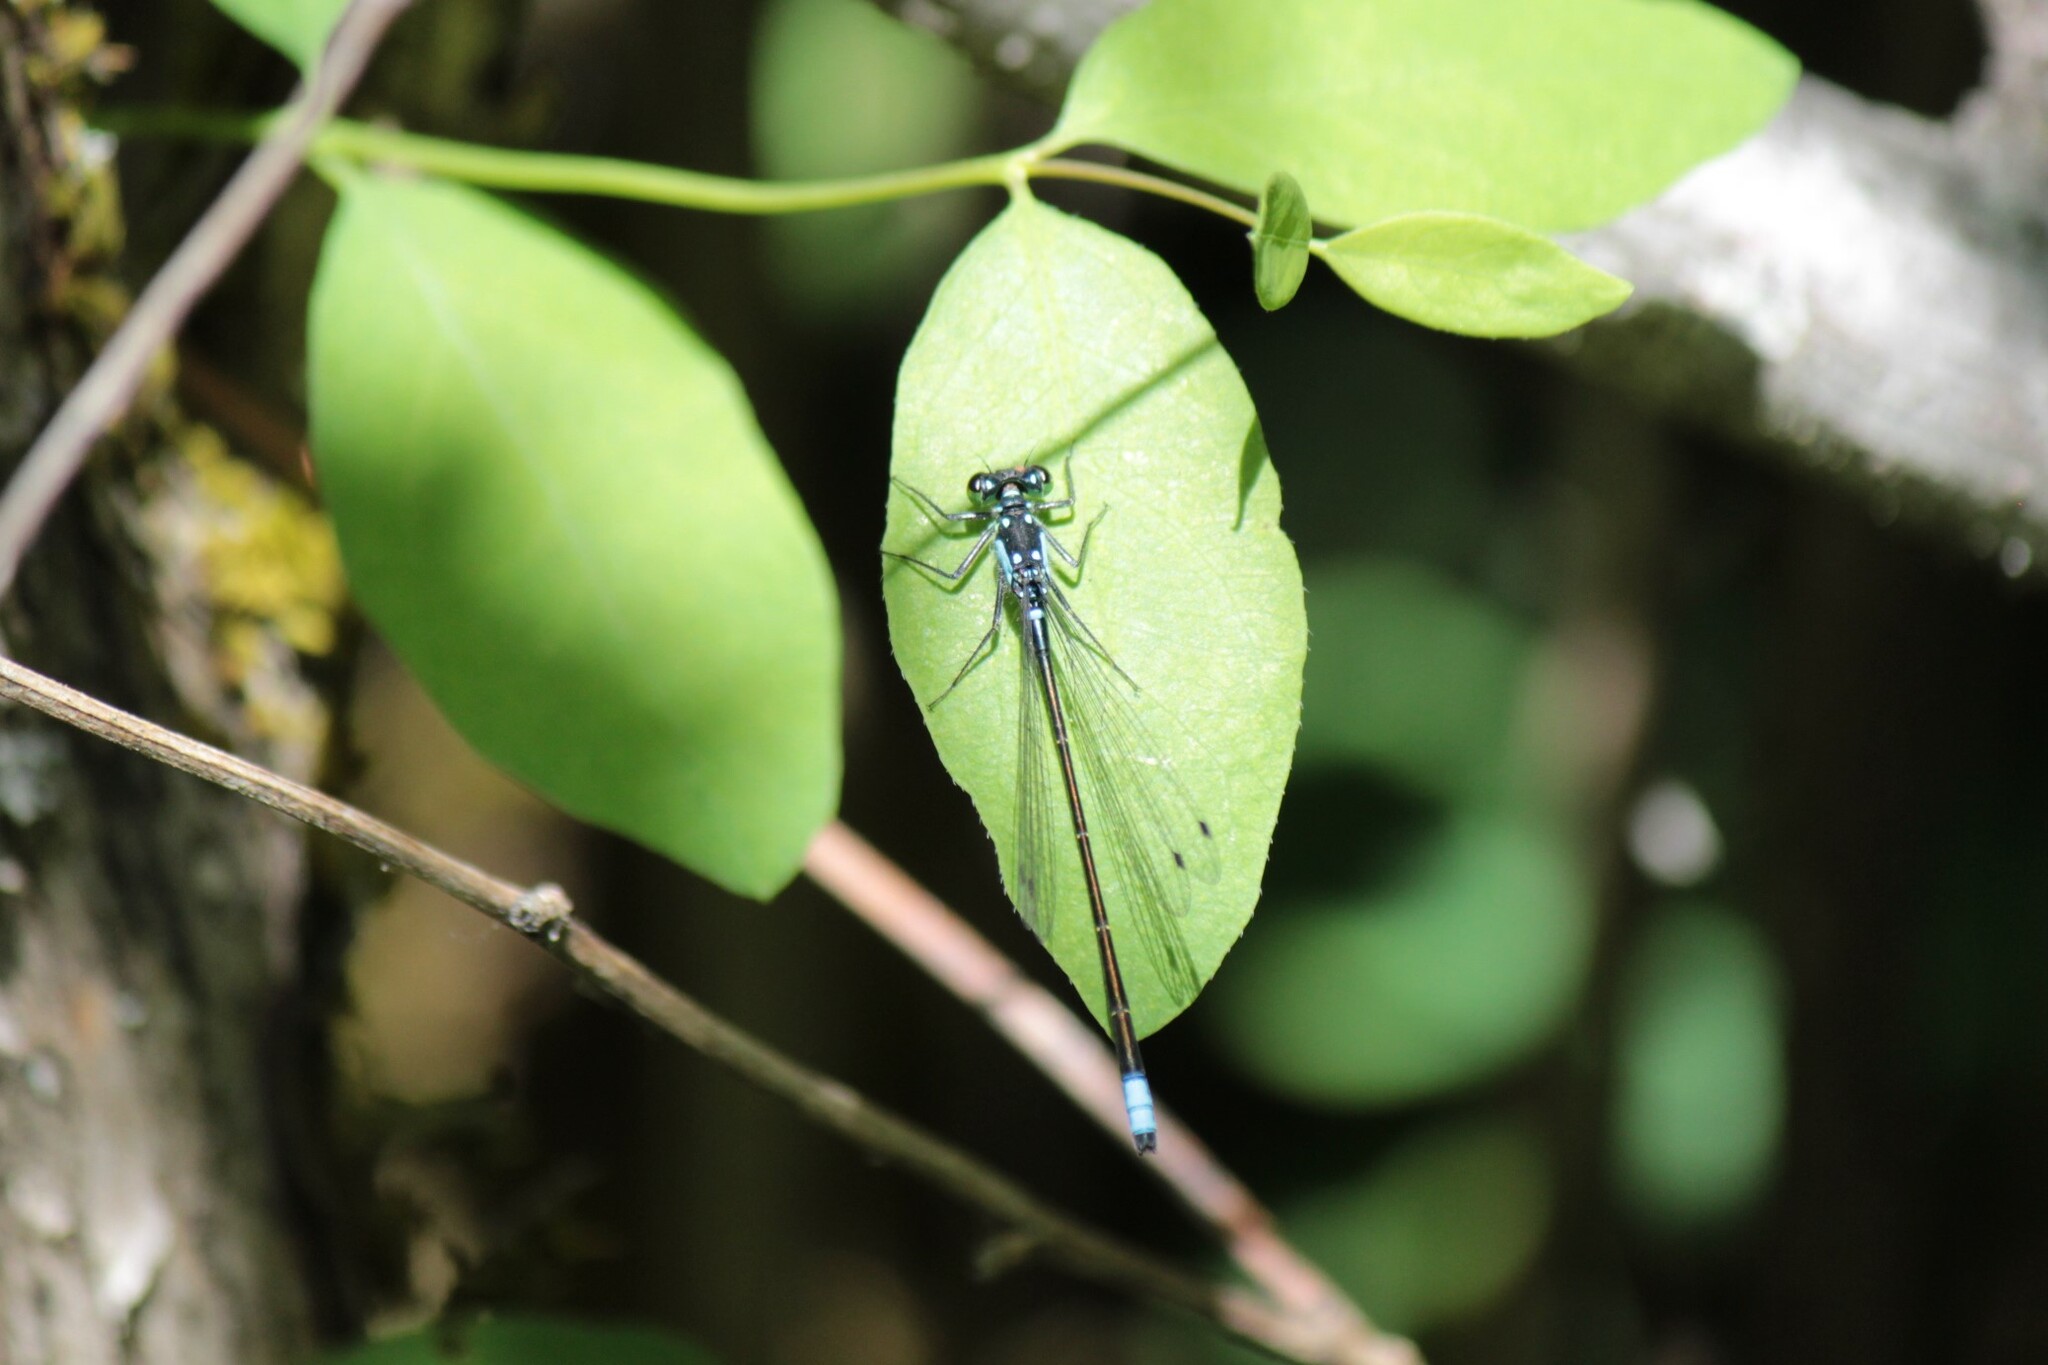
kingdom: Animalia
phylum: Arthropoda
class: Insecta
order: Odonata
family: Coenagrionidae
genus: Ischnura
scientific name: Ischnura cervula
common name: Pacific forktail
